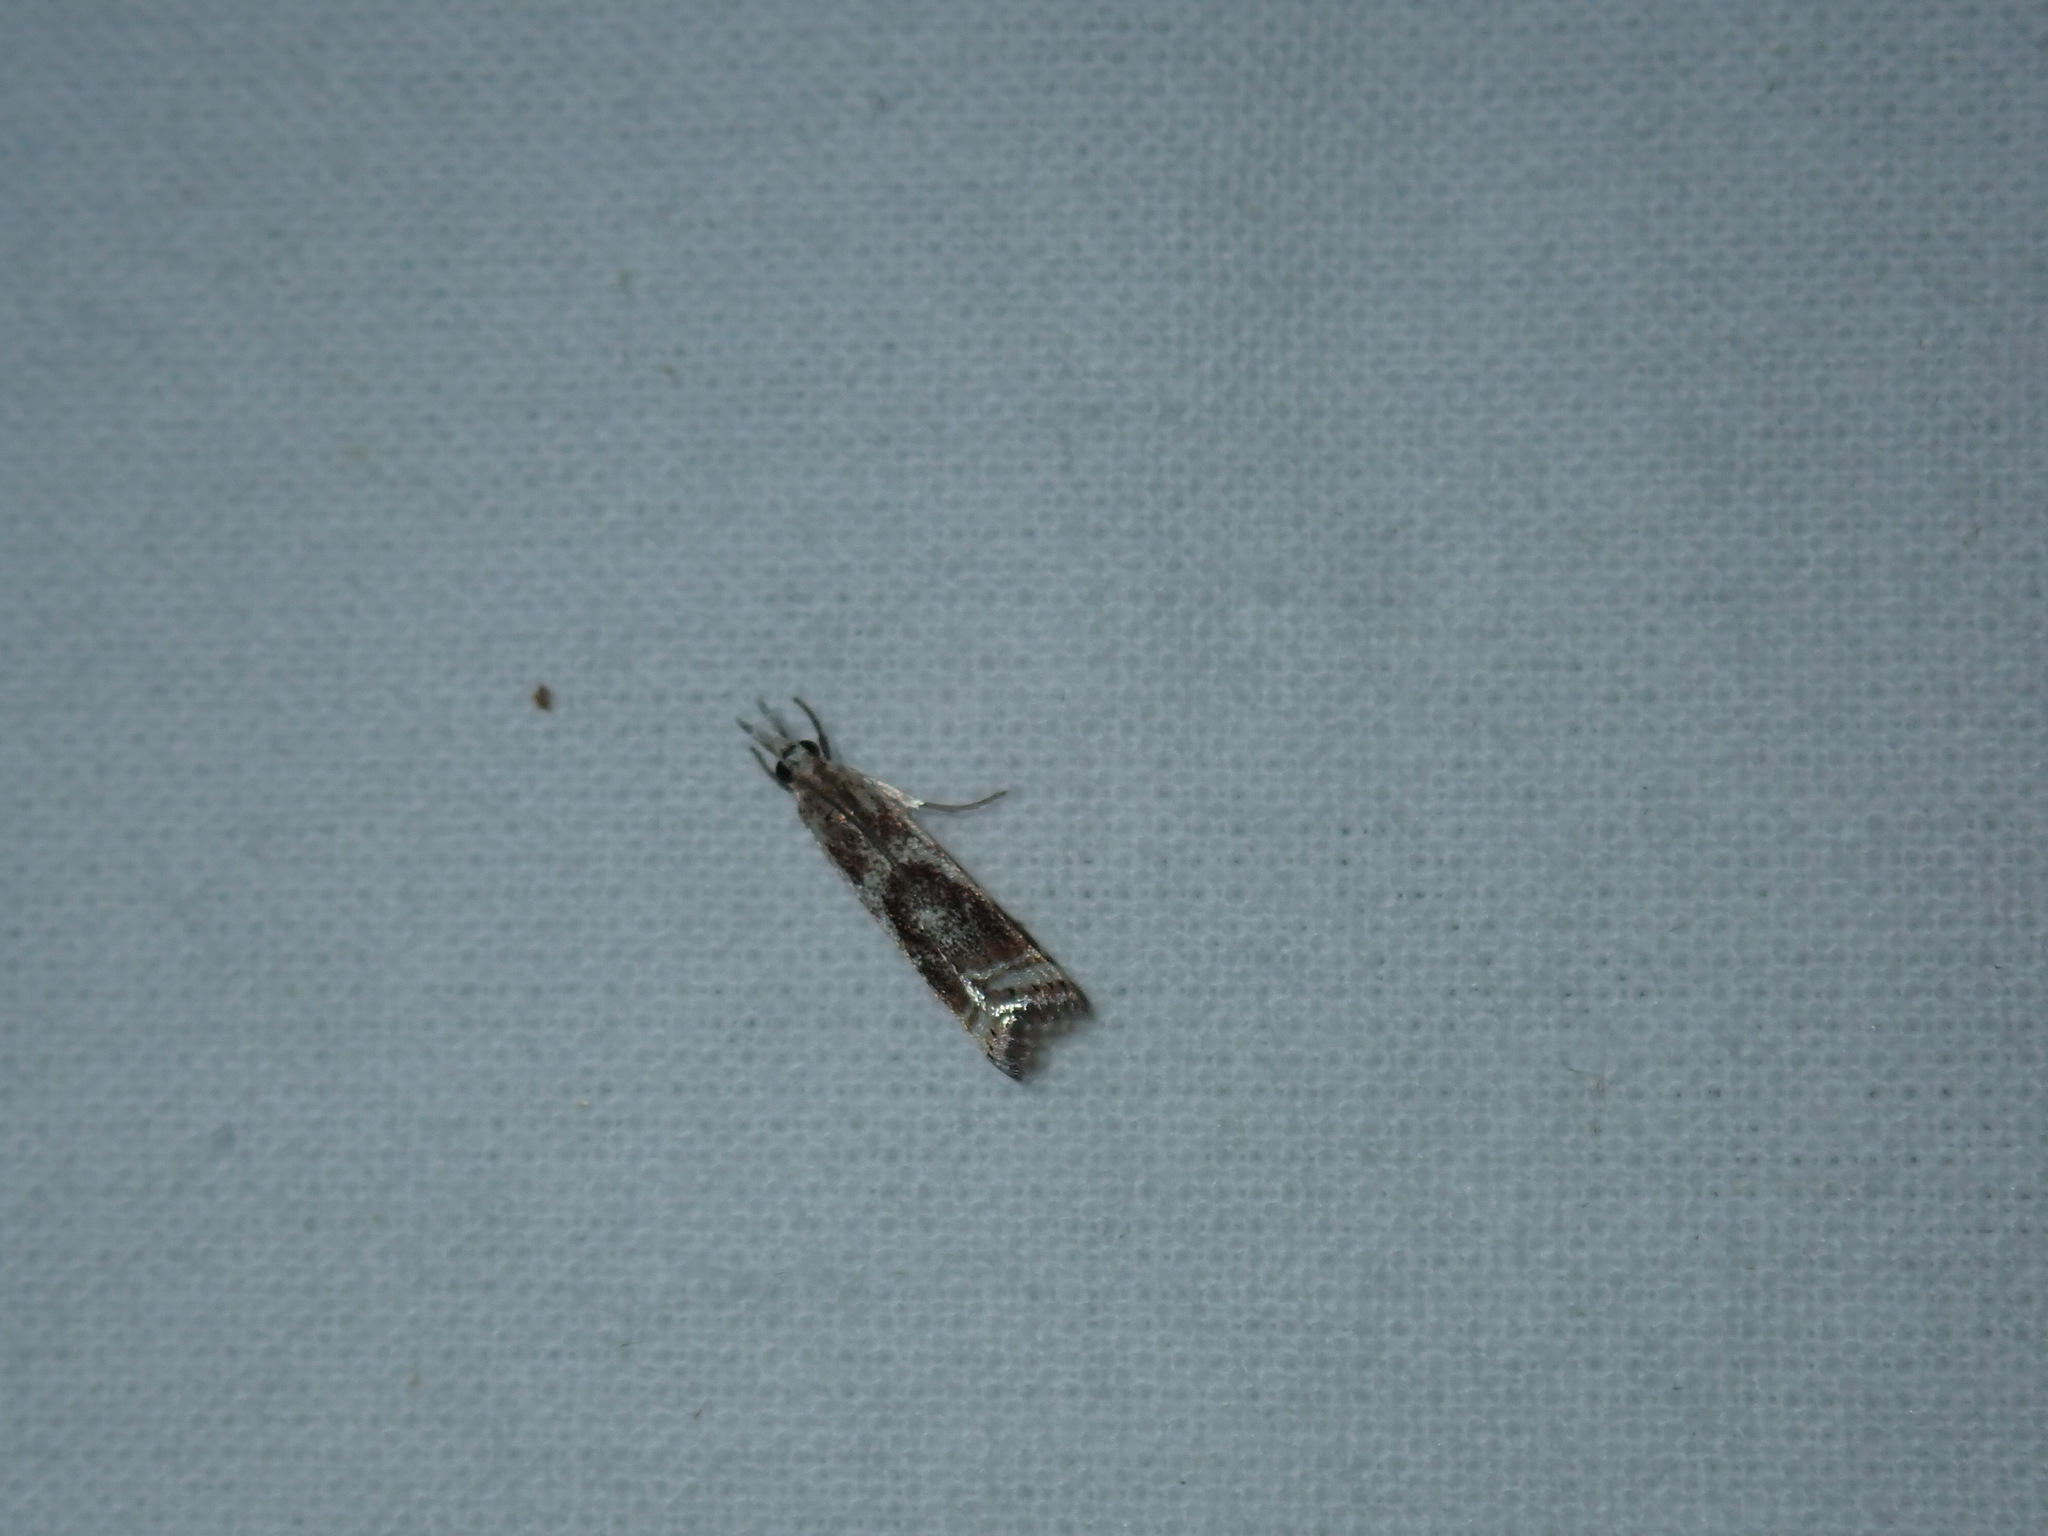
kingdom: Animalia
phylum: Arthropoda
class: Insecta
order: Lepidoptera
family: Crambidae
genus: Microcrambus
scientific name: Microcrambus elegans
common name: Elegant grass-veneer
